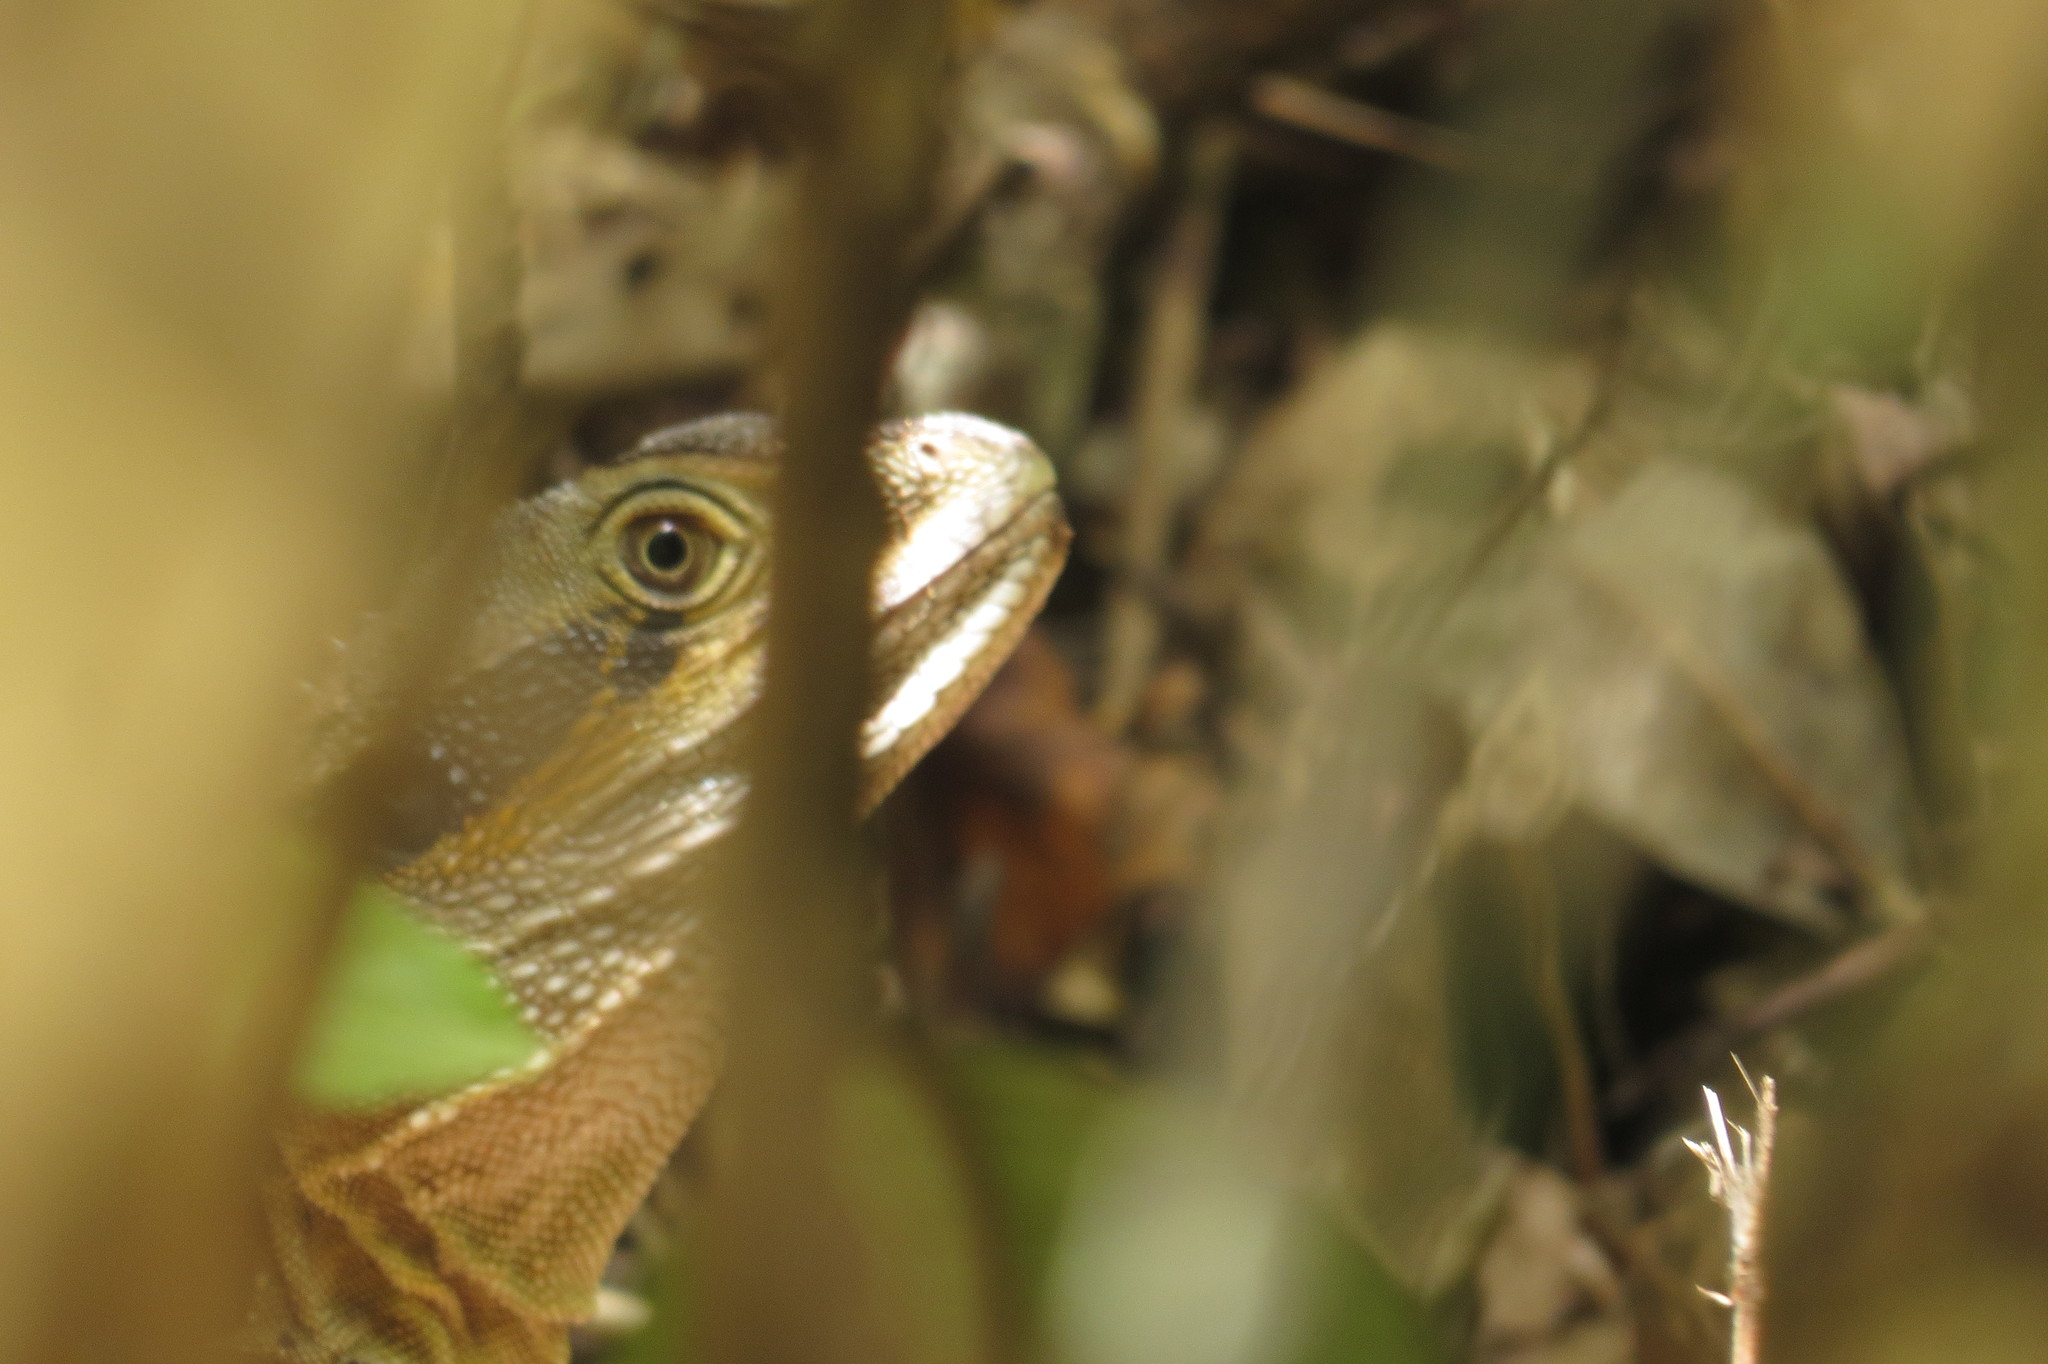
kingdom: Animalia
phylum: Chordata
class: Squamata
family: Agamidae
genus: Intellagama
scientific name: Intellagama lesueurii
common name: Eastern water dragon
